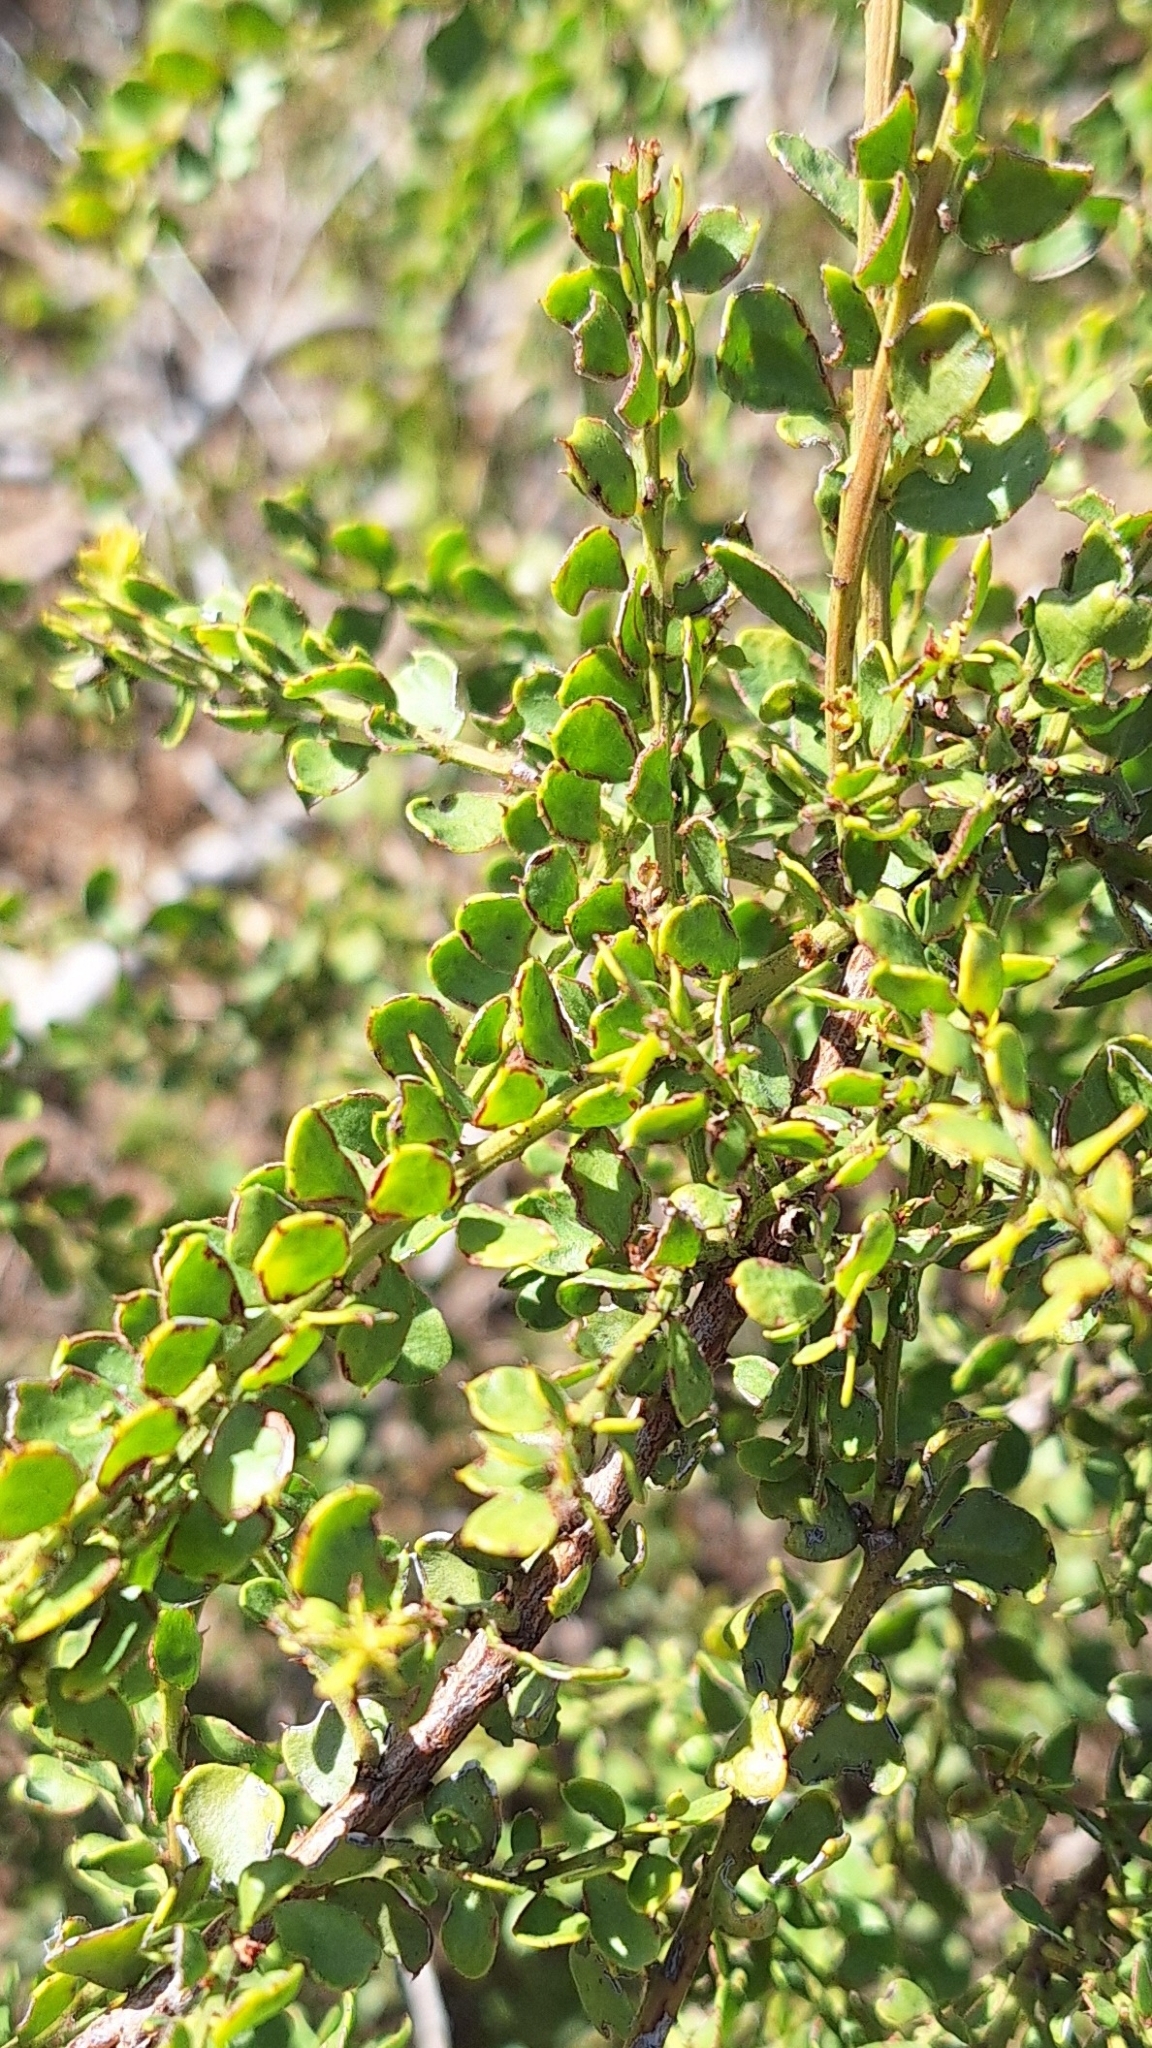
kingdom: Plantae
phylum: Tracheophyta
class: Magnoliopsida
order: Fabales
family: Fabaceae
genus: Acacia
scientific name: Acacia acinacea
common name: Gold-dust acacia
